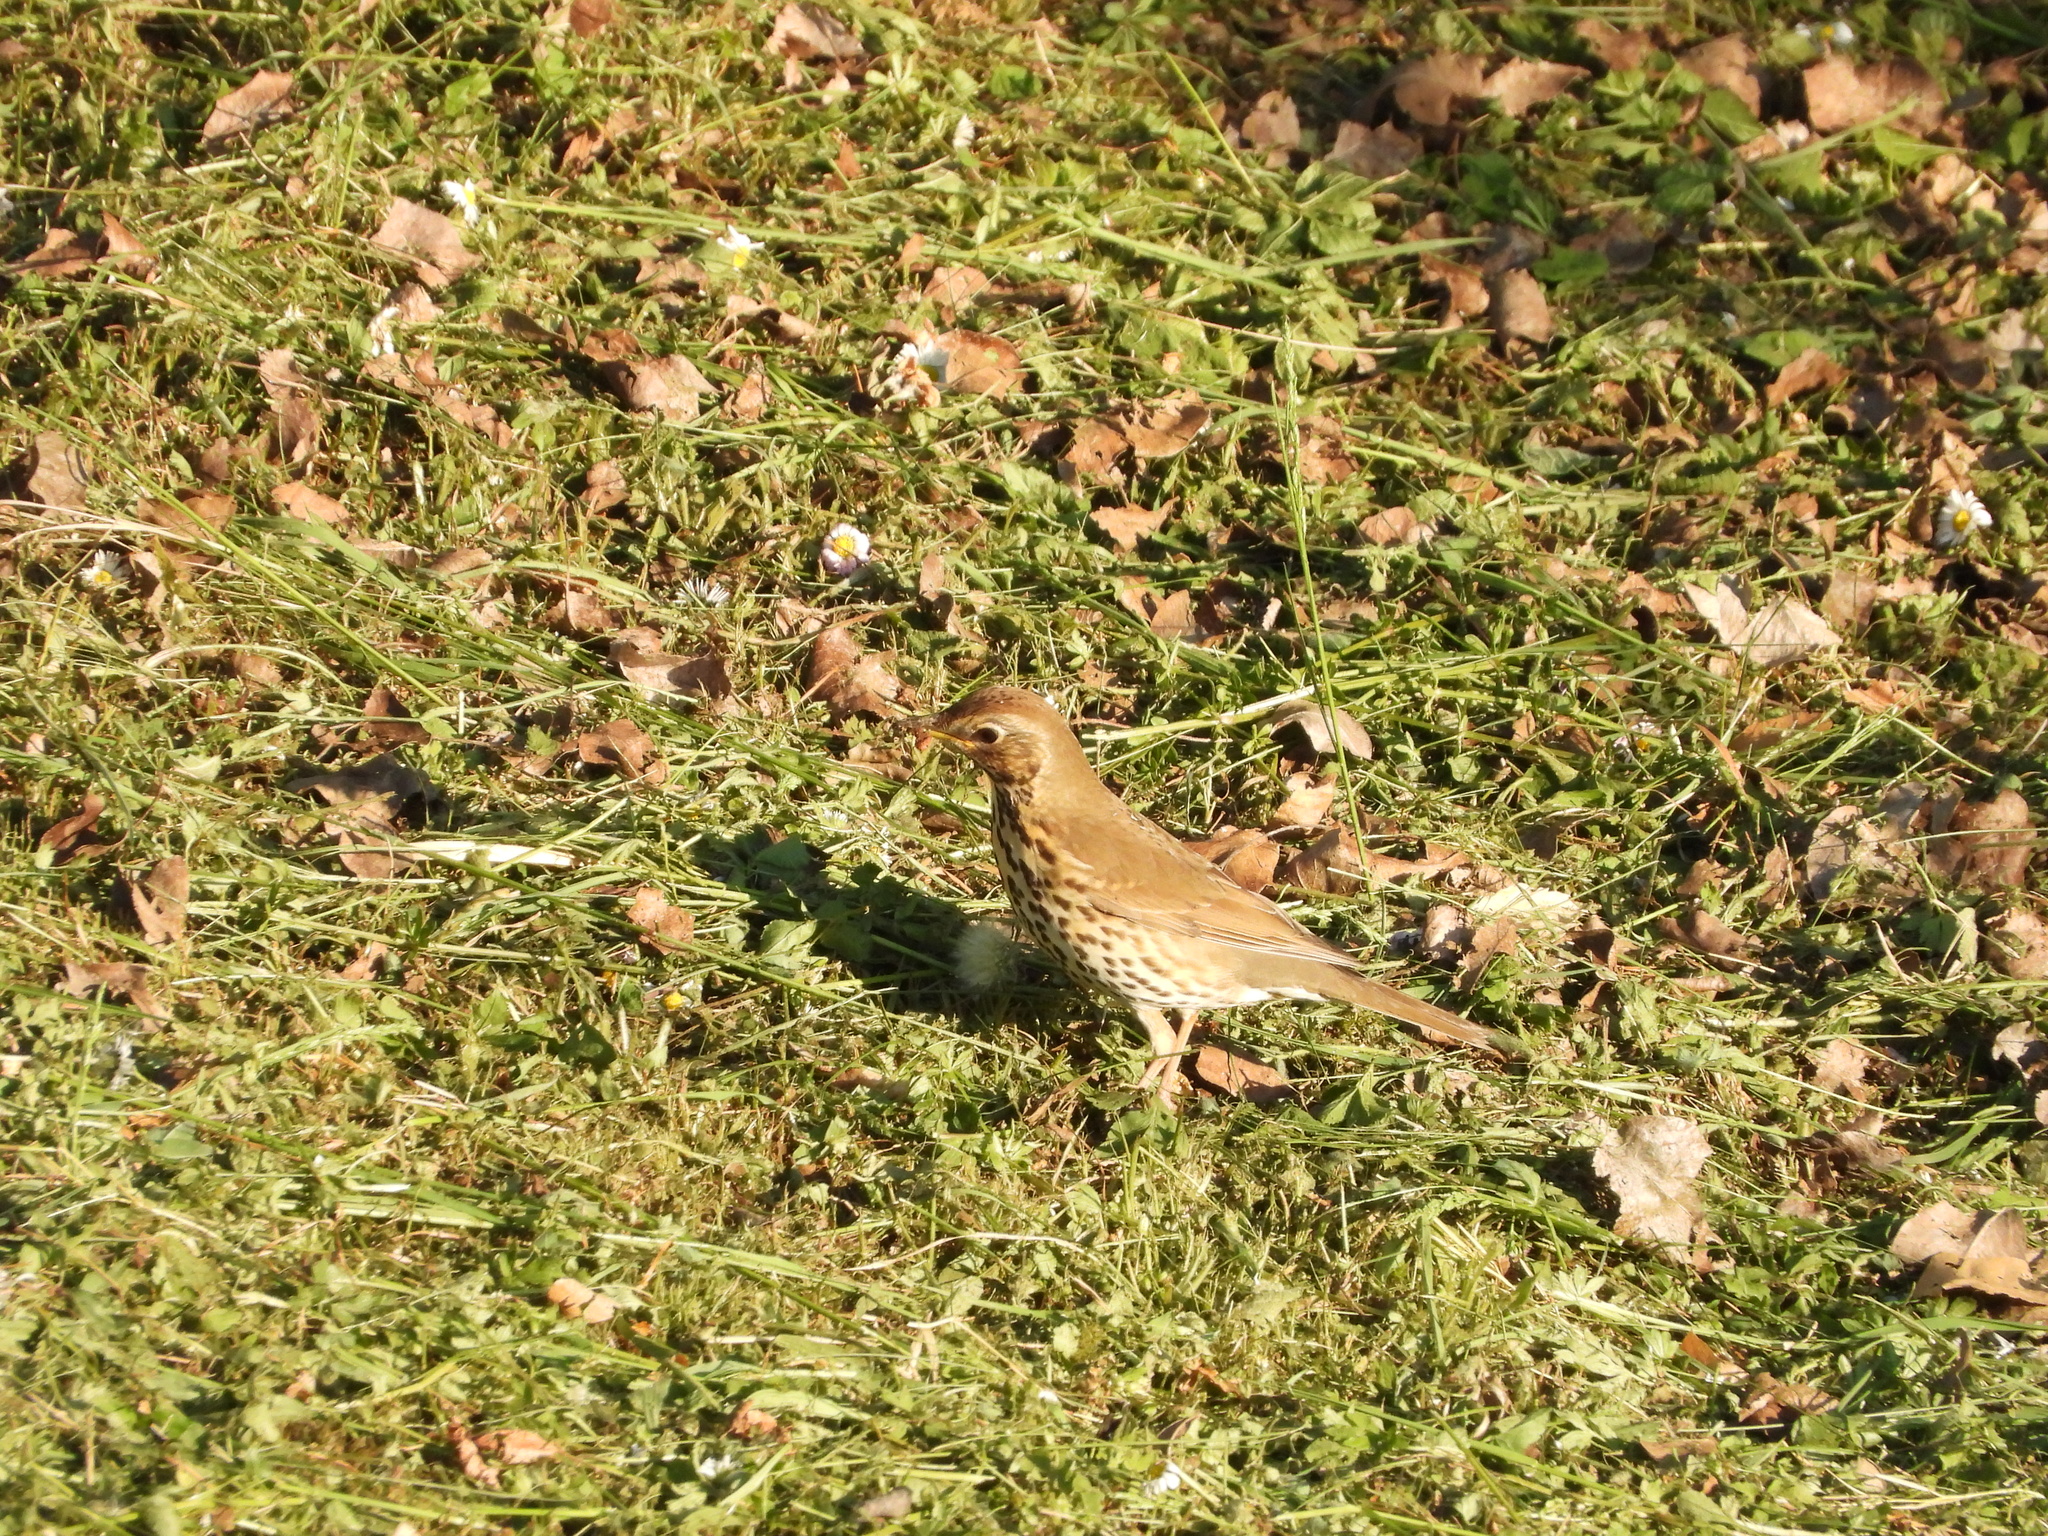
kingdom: Animalia
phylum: Chordata
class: Aves
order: Passeriformes
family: Turdidae
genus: Turdus
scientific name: Turdus philomelos
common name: Song thrush
